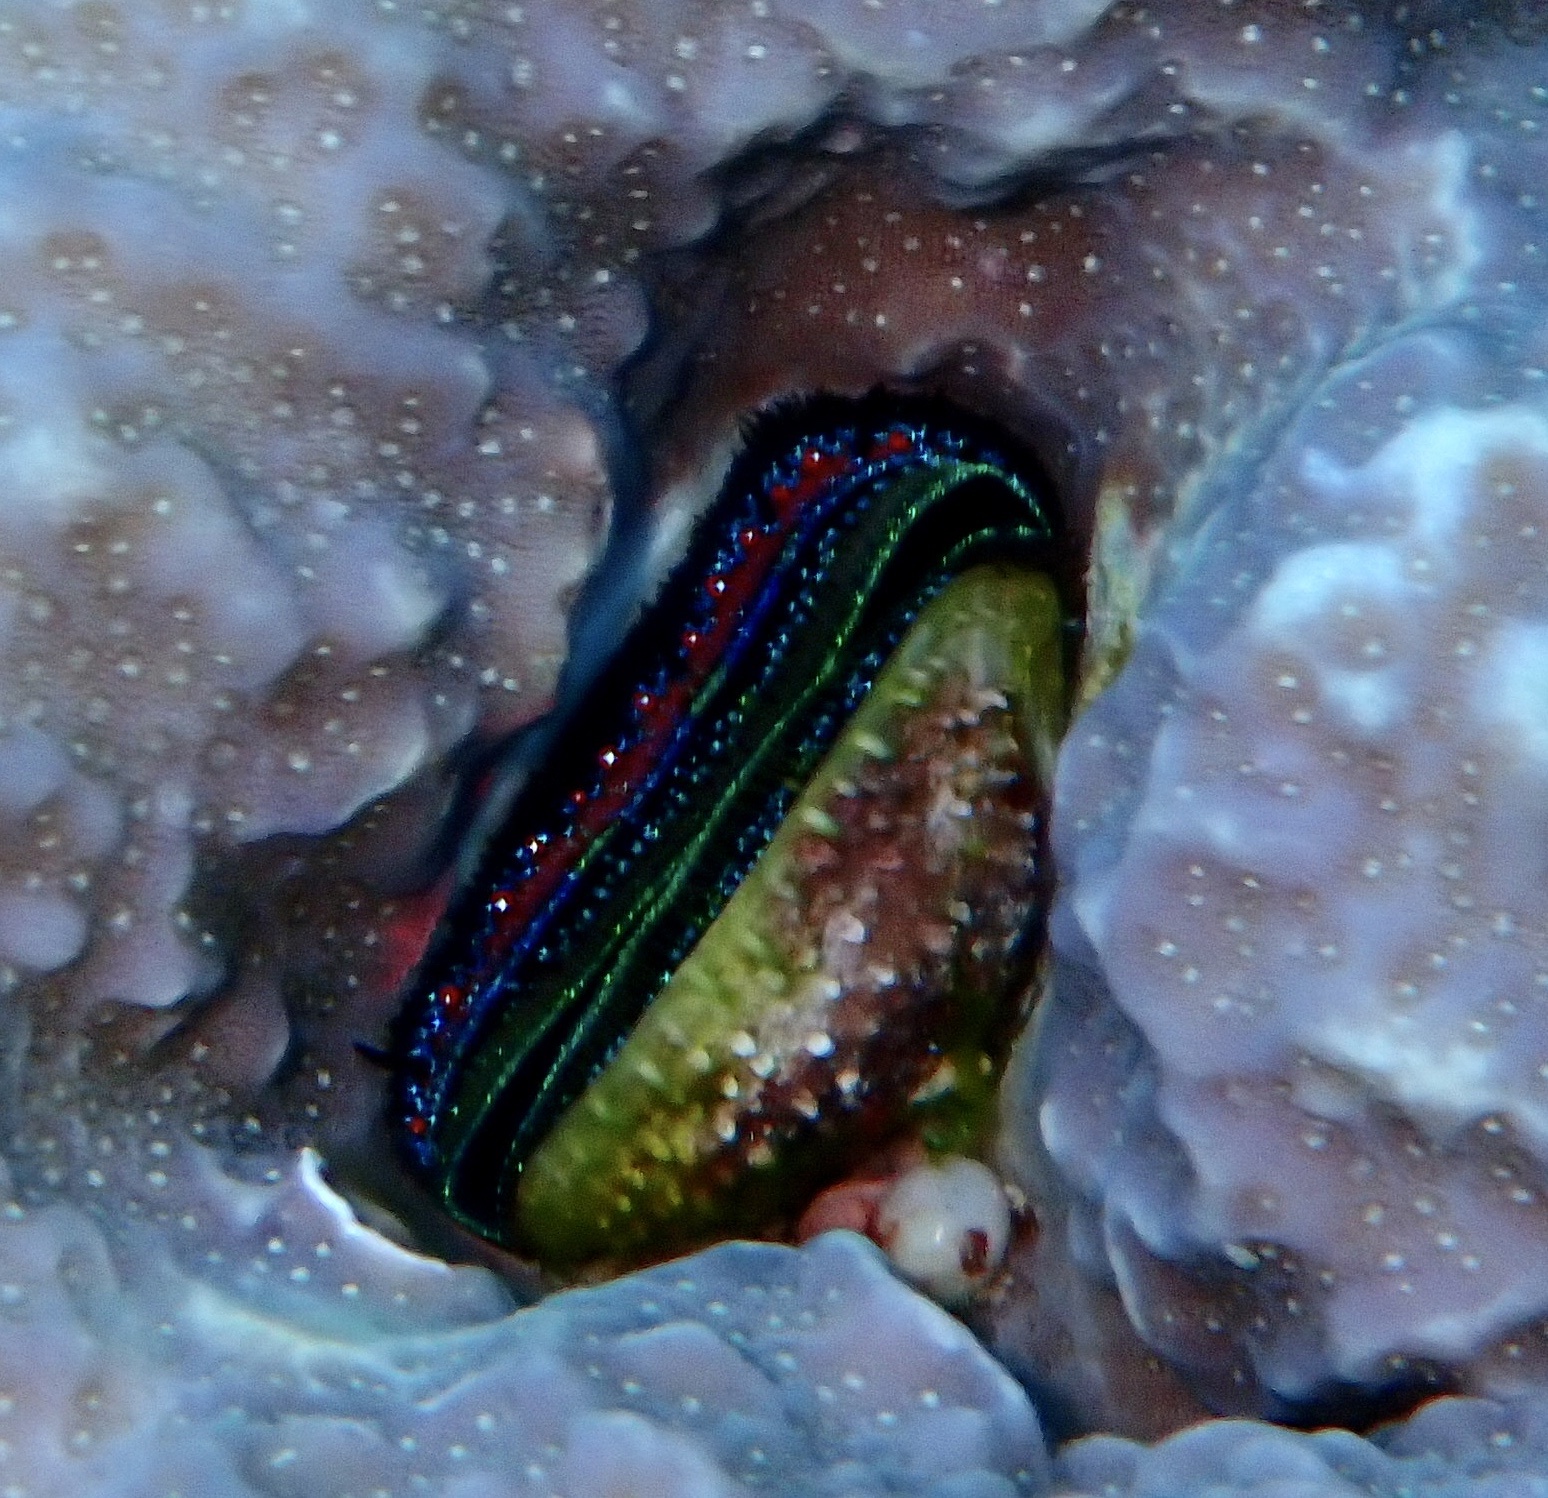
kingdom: Animalia
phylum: Mollusca
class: Bivalvia
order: Pectinida
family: Pectinidae
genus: Pedum
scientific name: Pedum spondyloideum
